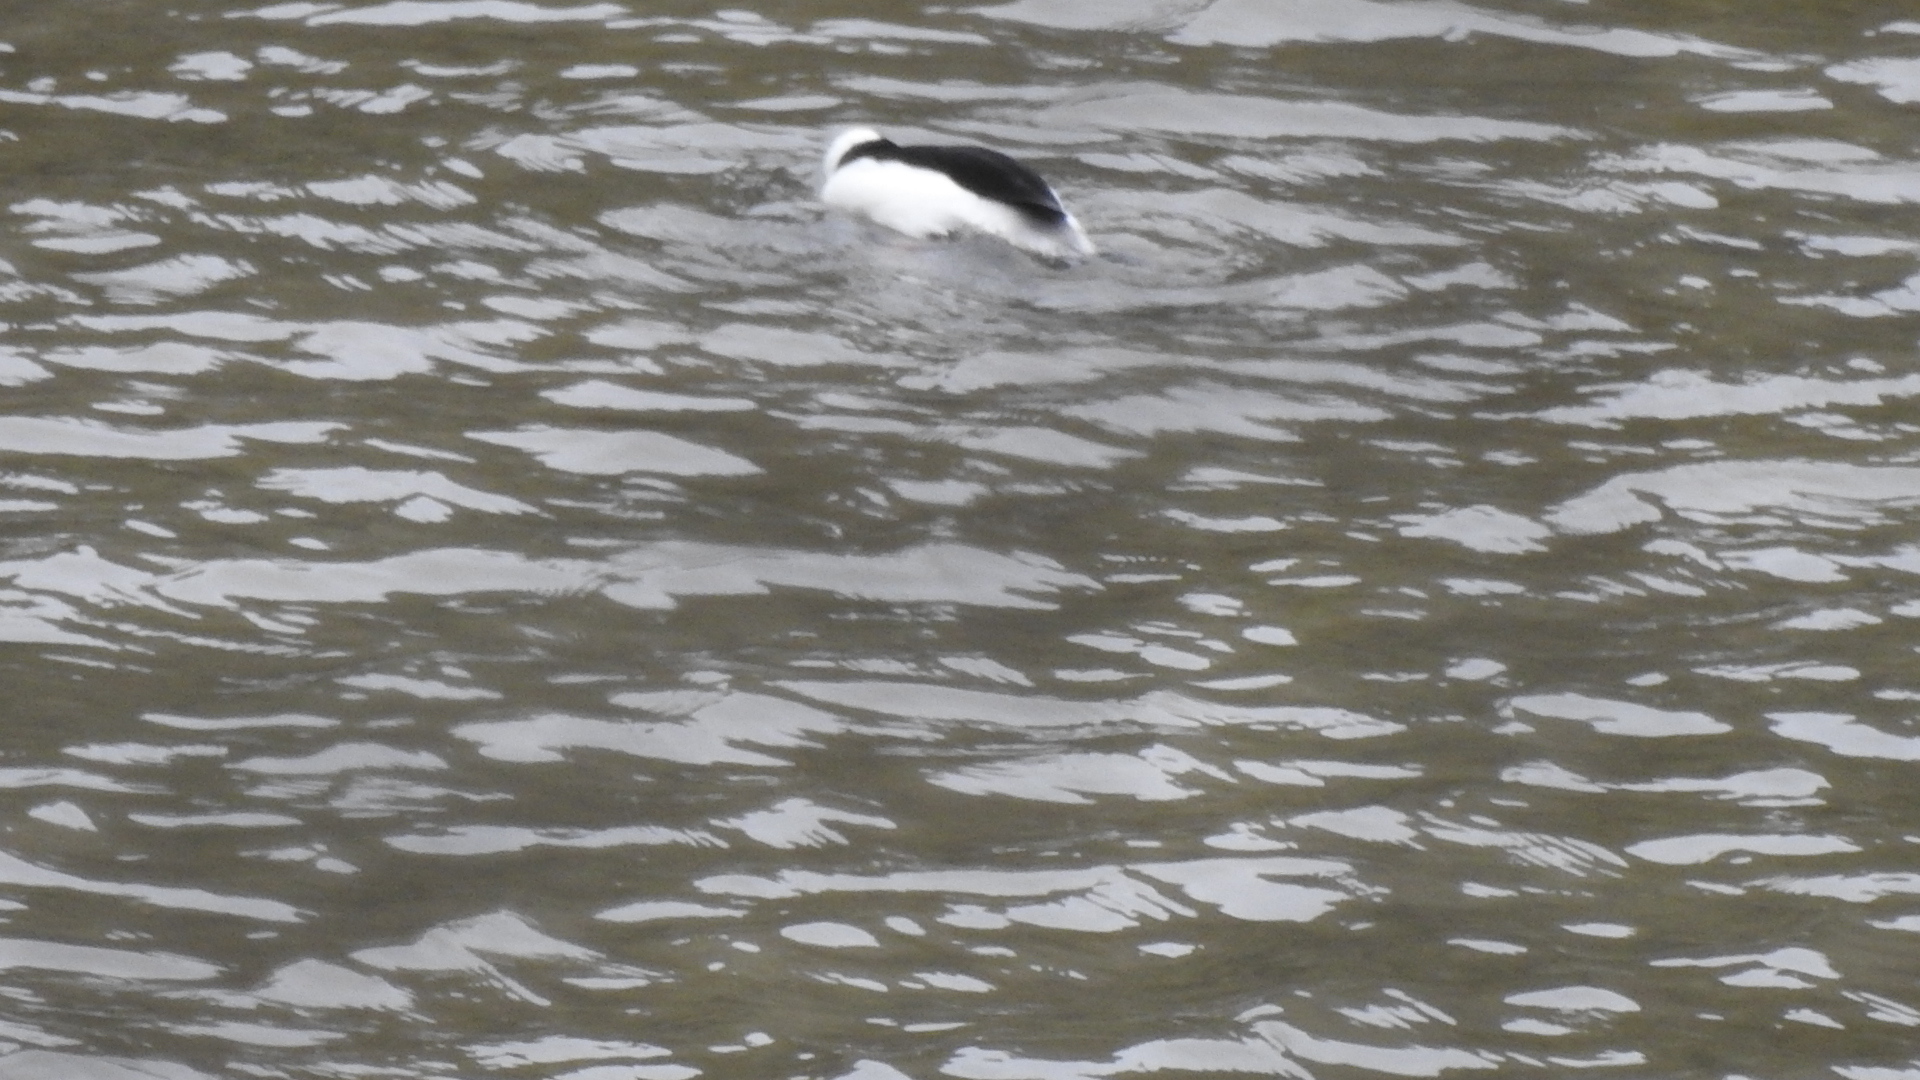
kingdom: Animalia
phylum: Chordata
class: Aves
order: Anseriformes
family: Anatidae
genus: Bucephala
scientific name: Bucephala albeola
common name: Bufflehead
